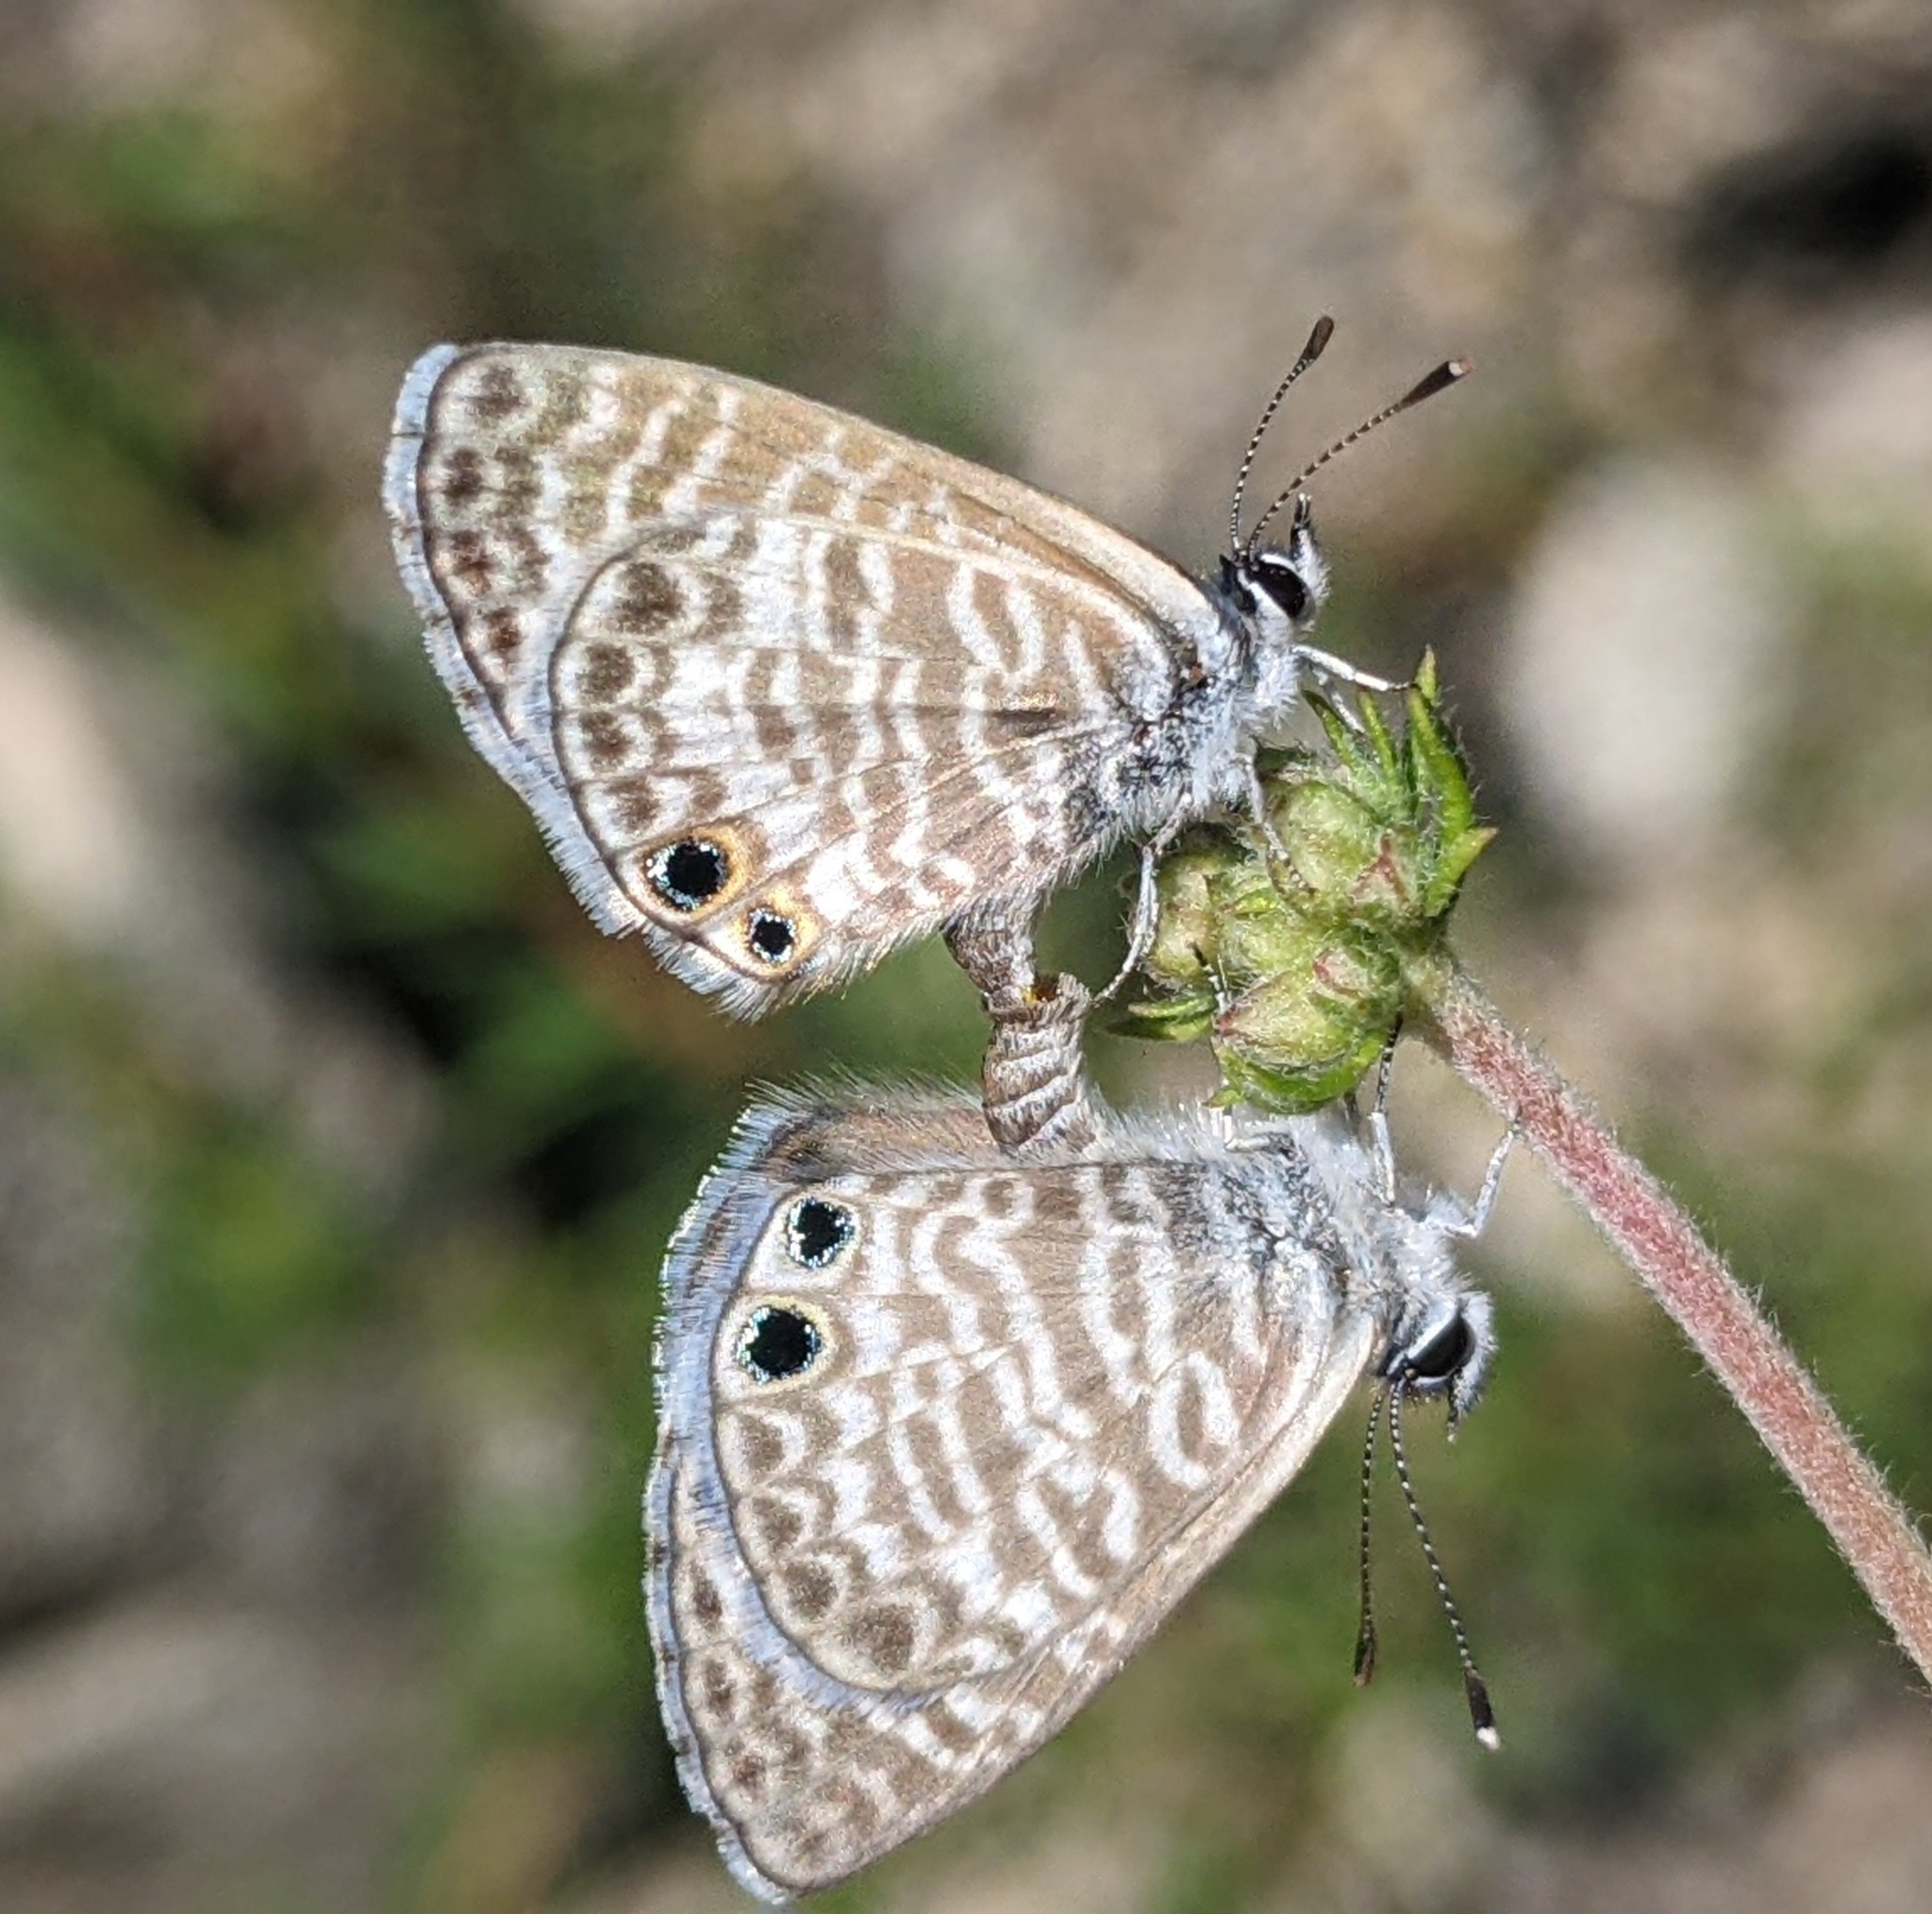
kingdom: Animalia
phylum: Arthropoda
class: Insecta
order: Lepidoptera
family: Lycaenidae
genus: Leptotes
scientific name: Leptotes marina
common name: Marine blue
